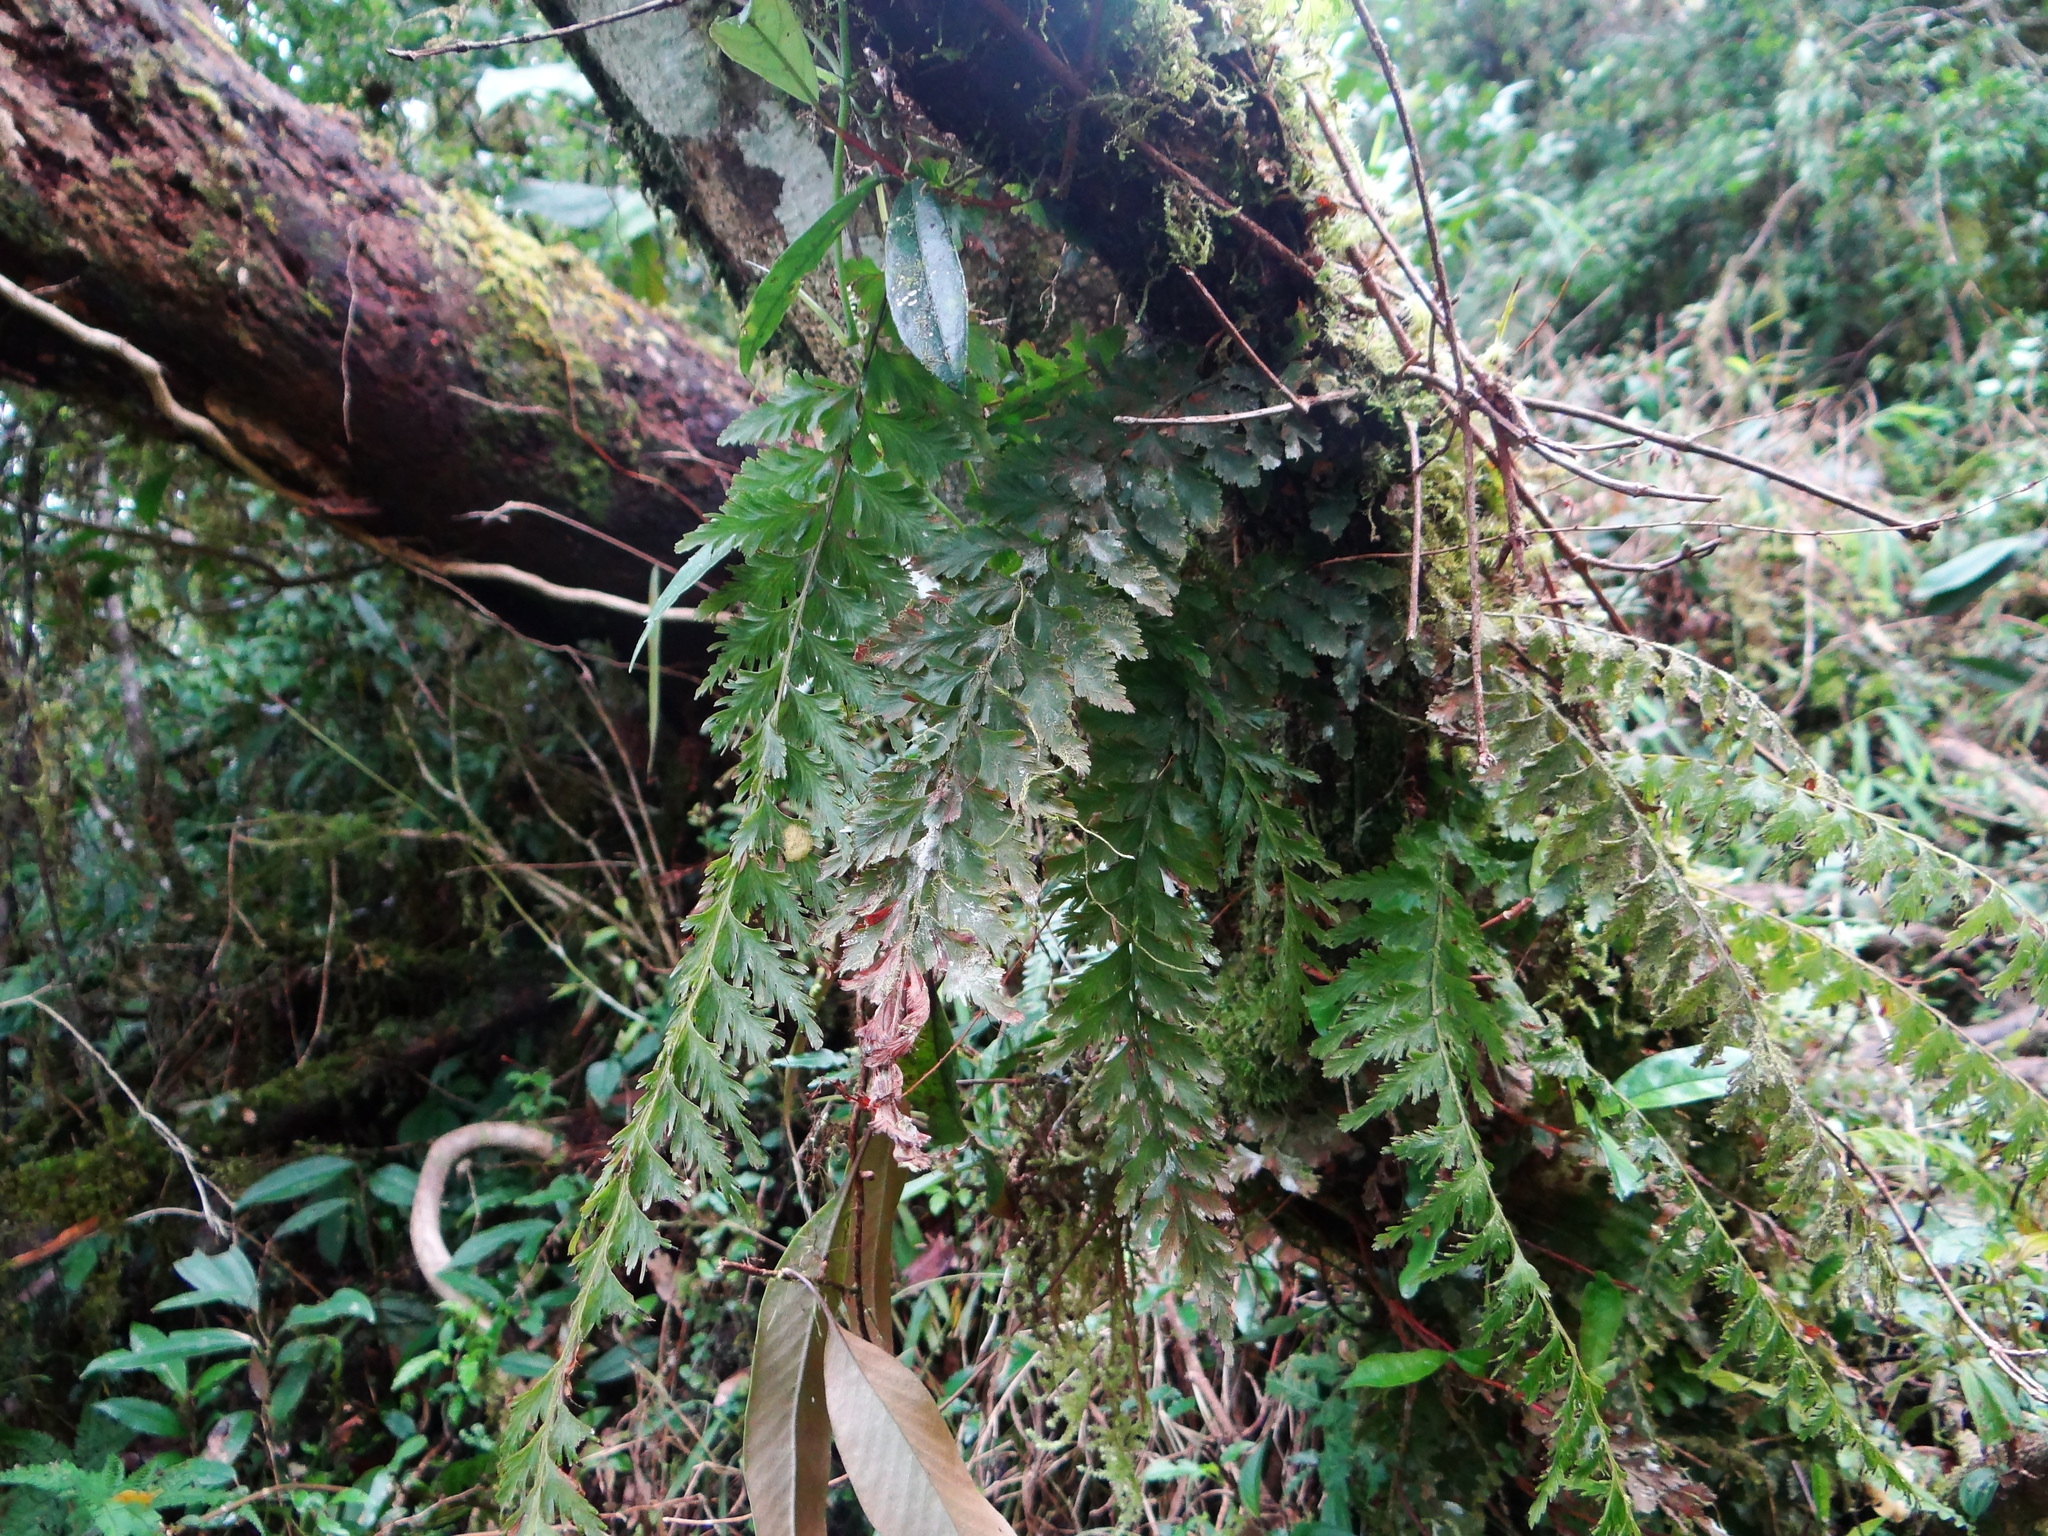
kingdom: Plantae
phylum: Tracheophyta
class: Polypodiopsida
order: Hymenophyllales
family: Hymenophyllaceae
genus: Vandenboschia
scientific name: Vandenboschia auriculata
